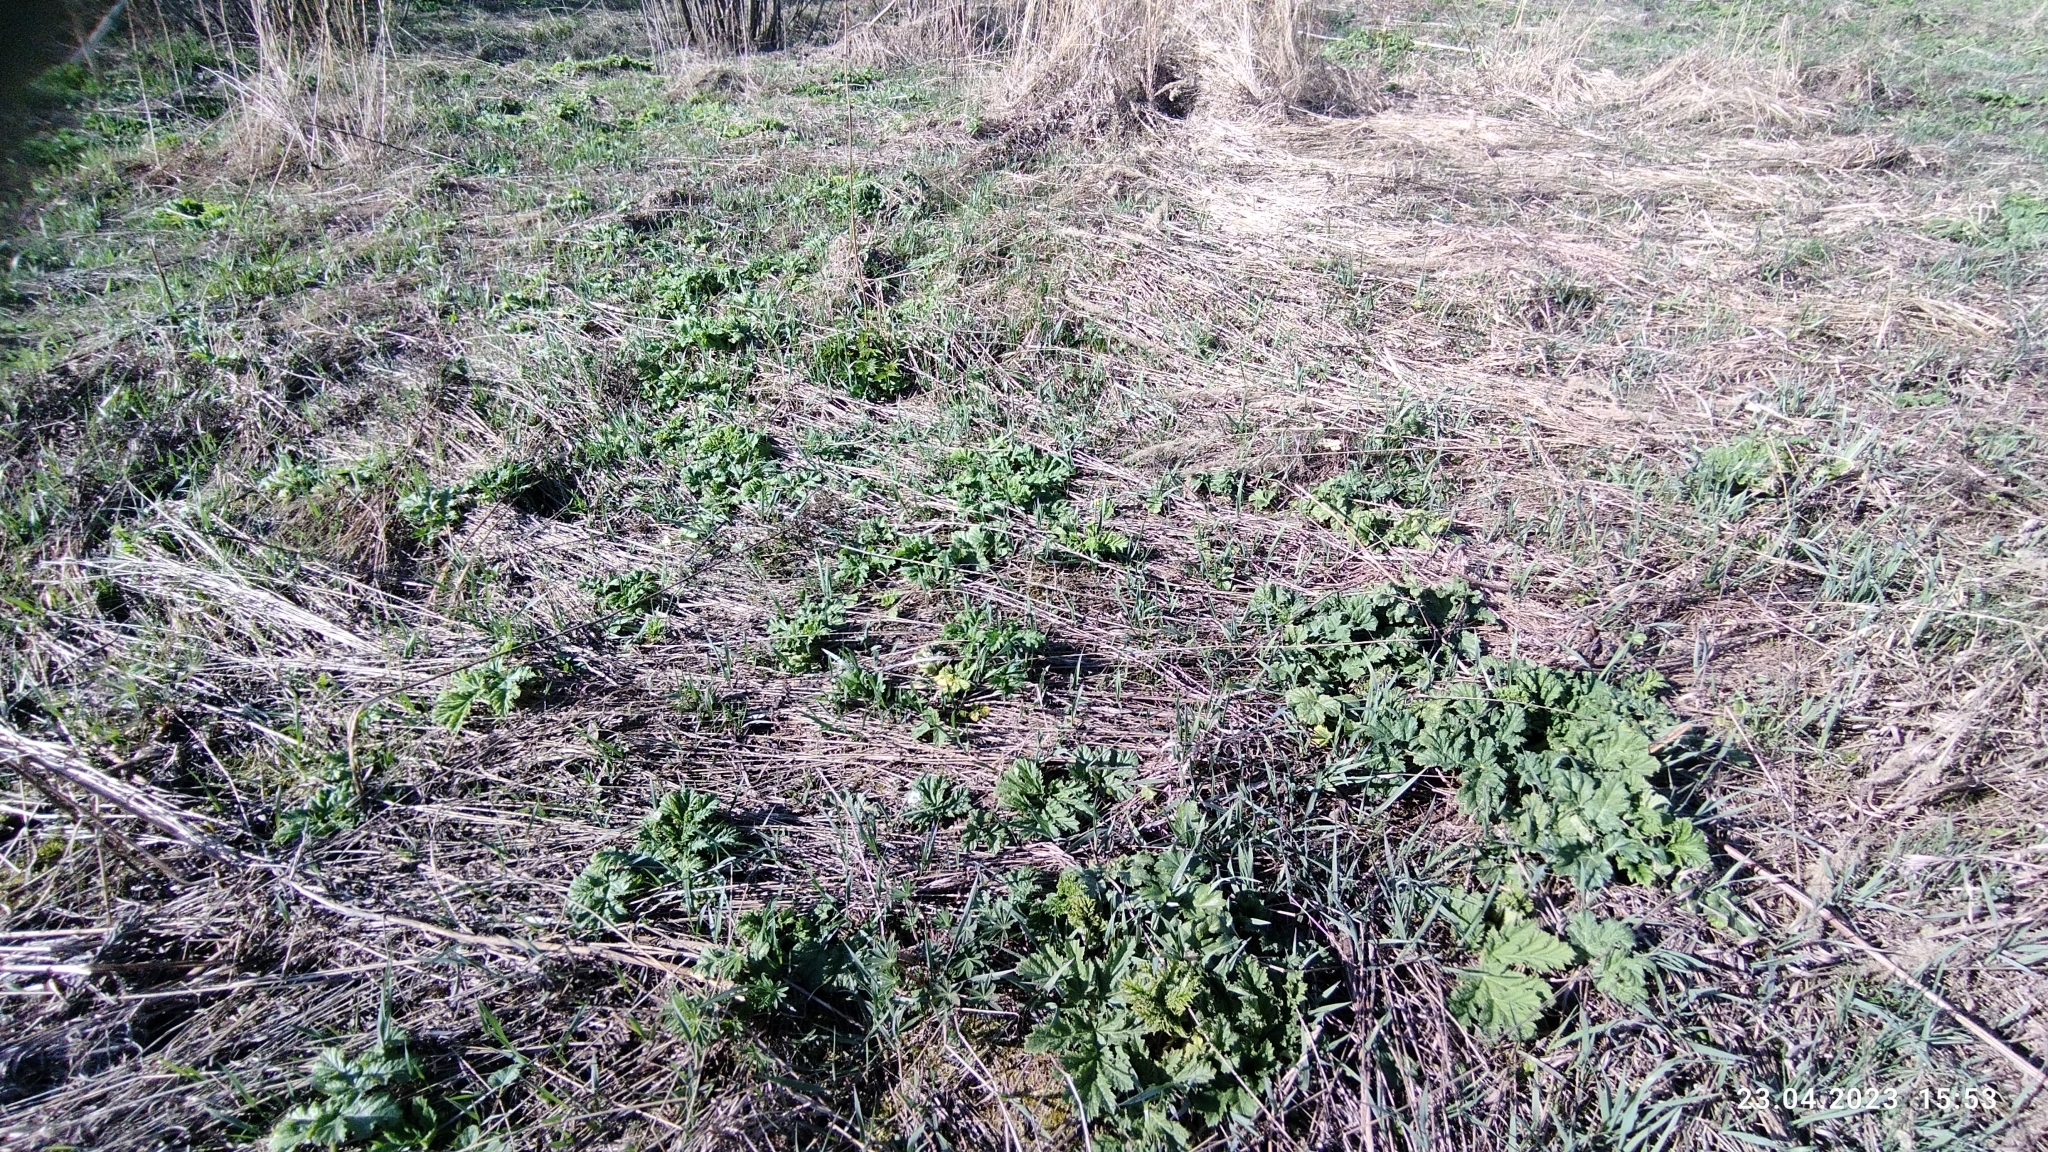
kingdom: Plantae
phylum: Tracheophyta
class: Magnoliopsida
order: Apiales
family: Apiaceae
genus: Heracleum
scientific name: Heracleum sosnowskyi
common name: Sosnowsky's hogweed
